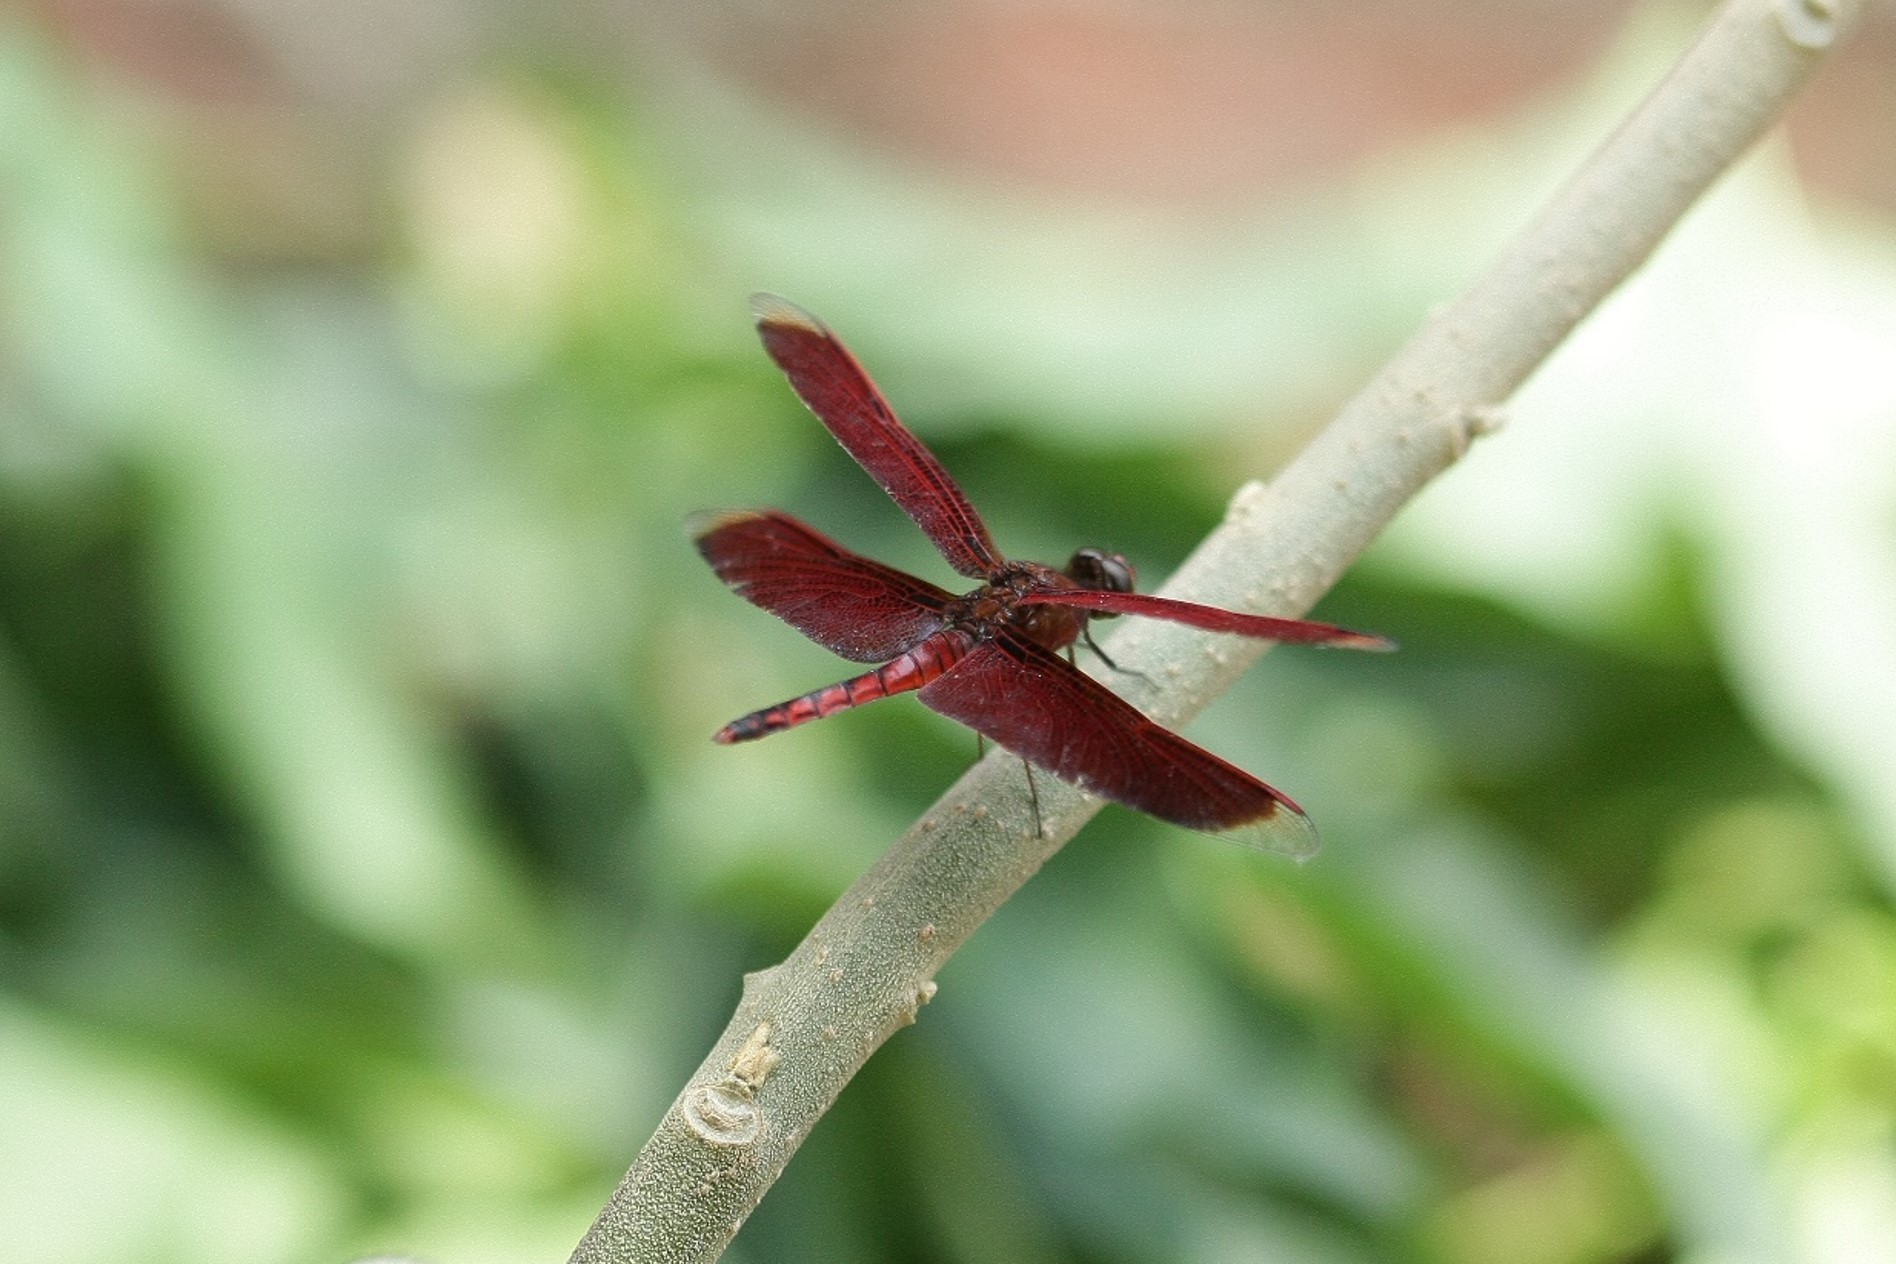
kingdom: Animalia
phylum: Arthropoda
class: Insecta
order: Odonata
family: Libellulidae
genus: Neurothemis
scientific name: Neurothemis taiwanensis
